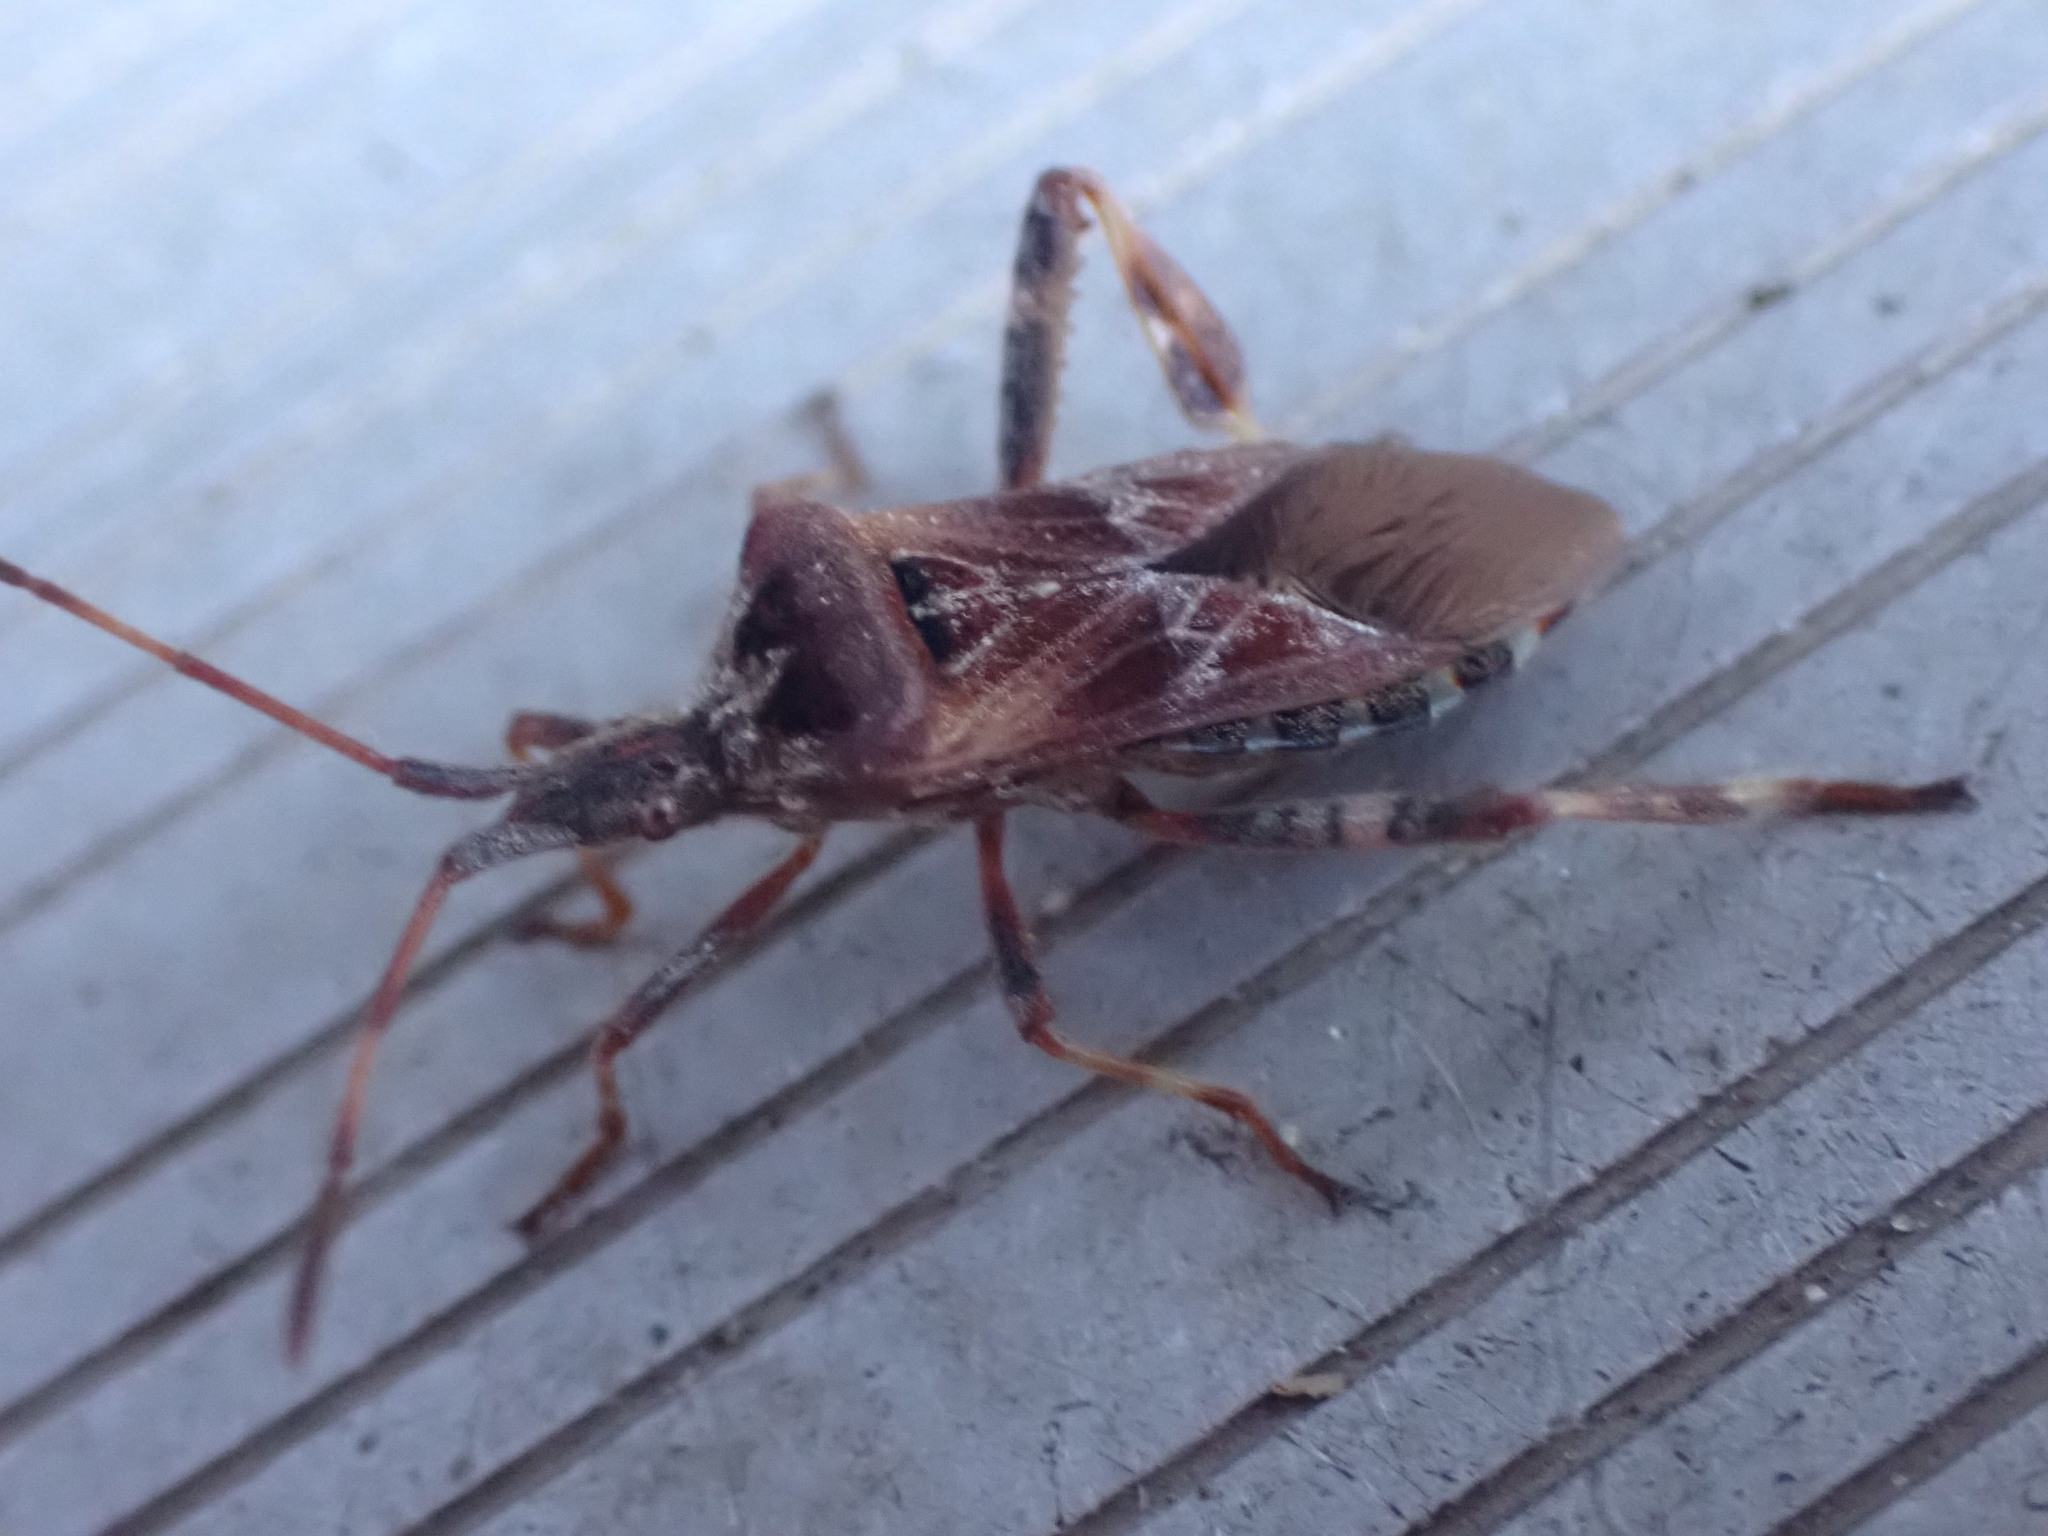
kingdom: Animalia
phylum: Arthropoda
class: Insecta
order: Hemiptera
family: Coreidae
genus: Leptoglossus
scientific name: Leptoglossus occidentalis
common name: Western conifer-seed bug
